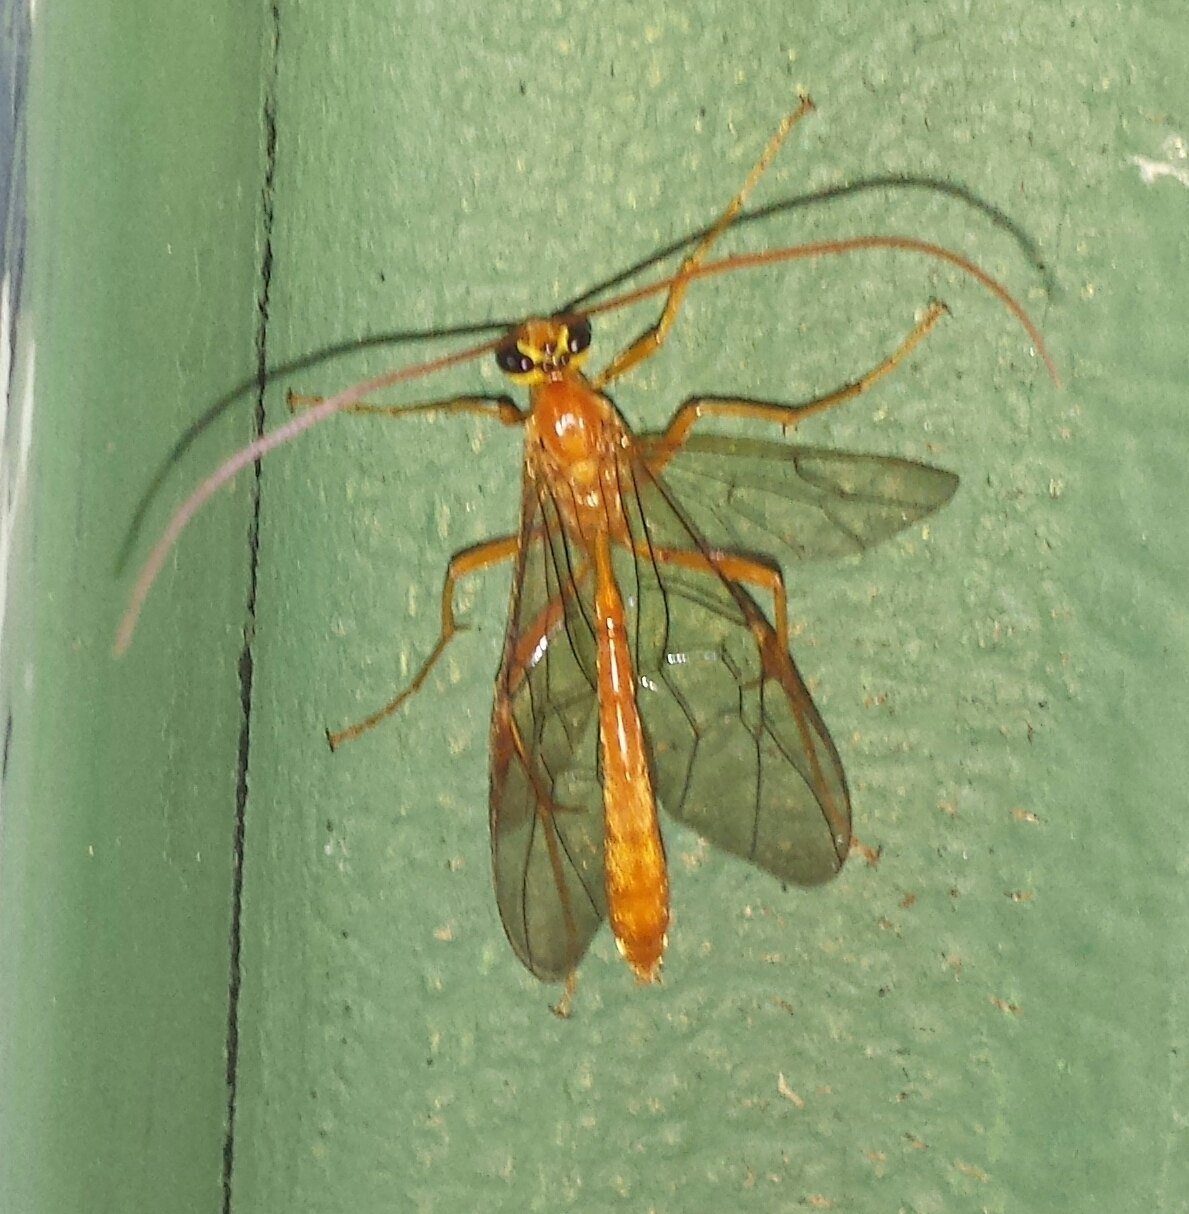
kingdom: Animalia
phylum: Arthropoda
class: Insecta
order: Hymenoptera
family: Ichneumonidae
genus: Ophion
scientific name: Ophion
